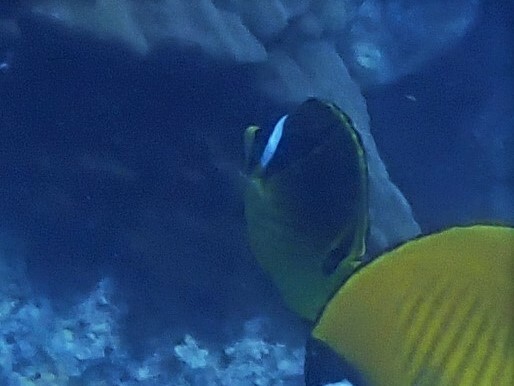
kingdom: Animalia
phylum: Chordata
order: Perciformes
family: Chaetodontidae
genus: Chaetodon
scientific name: Chaetodon lunula
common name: Raccoon butterflyfish
